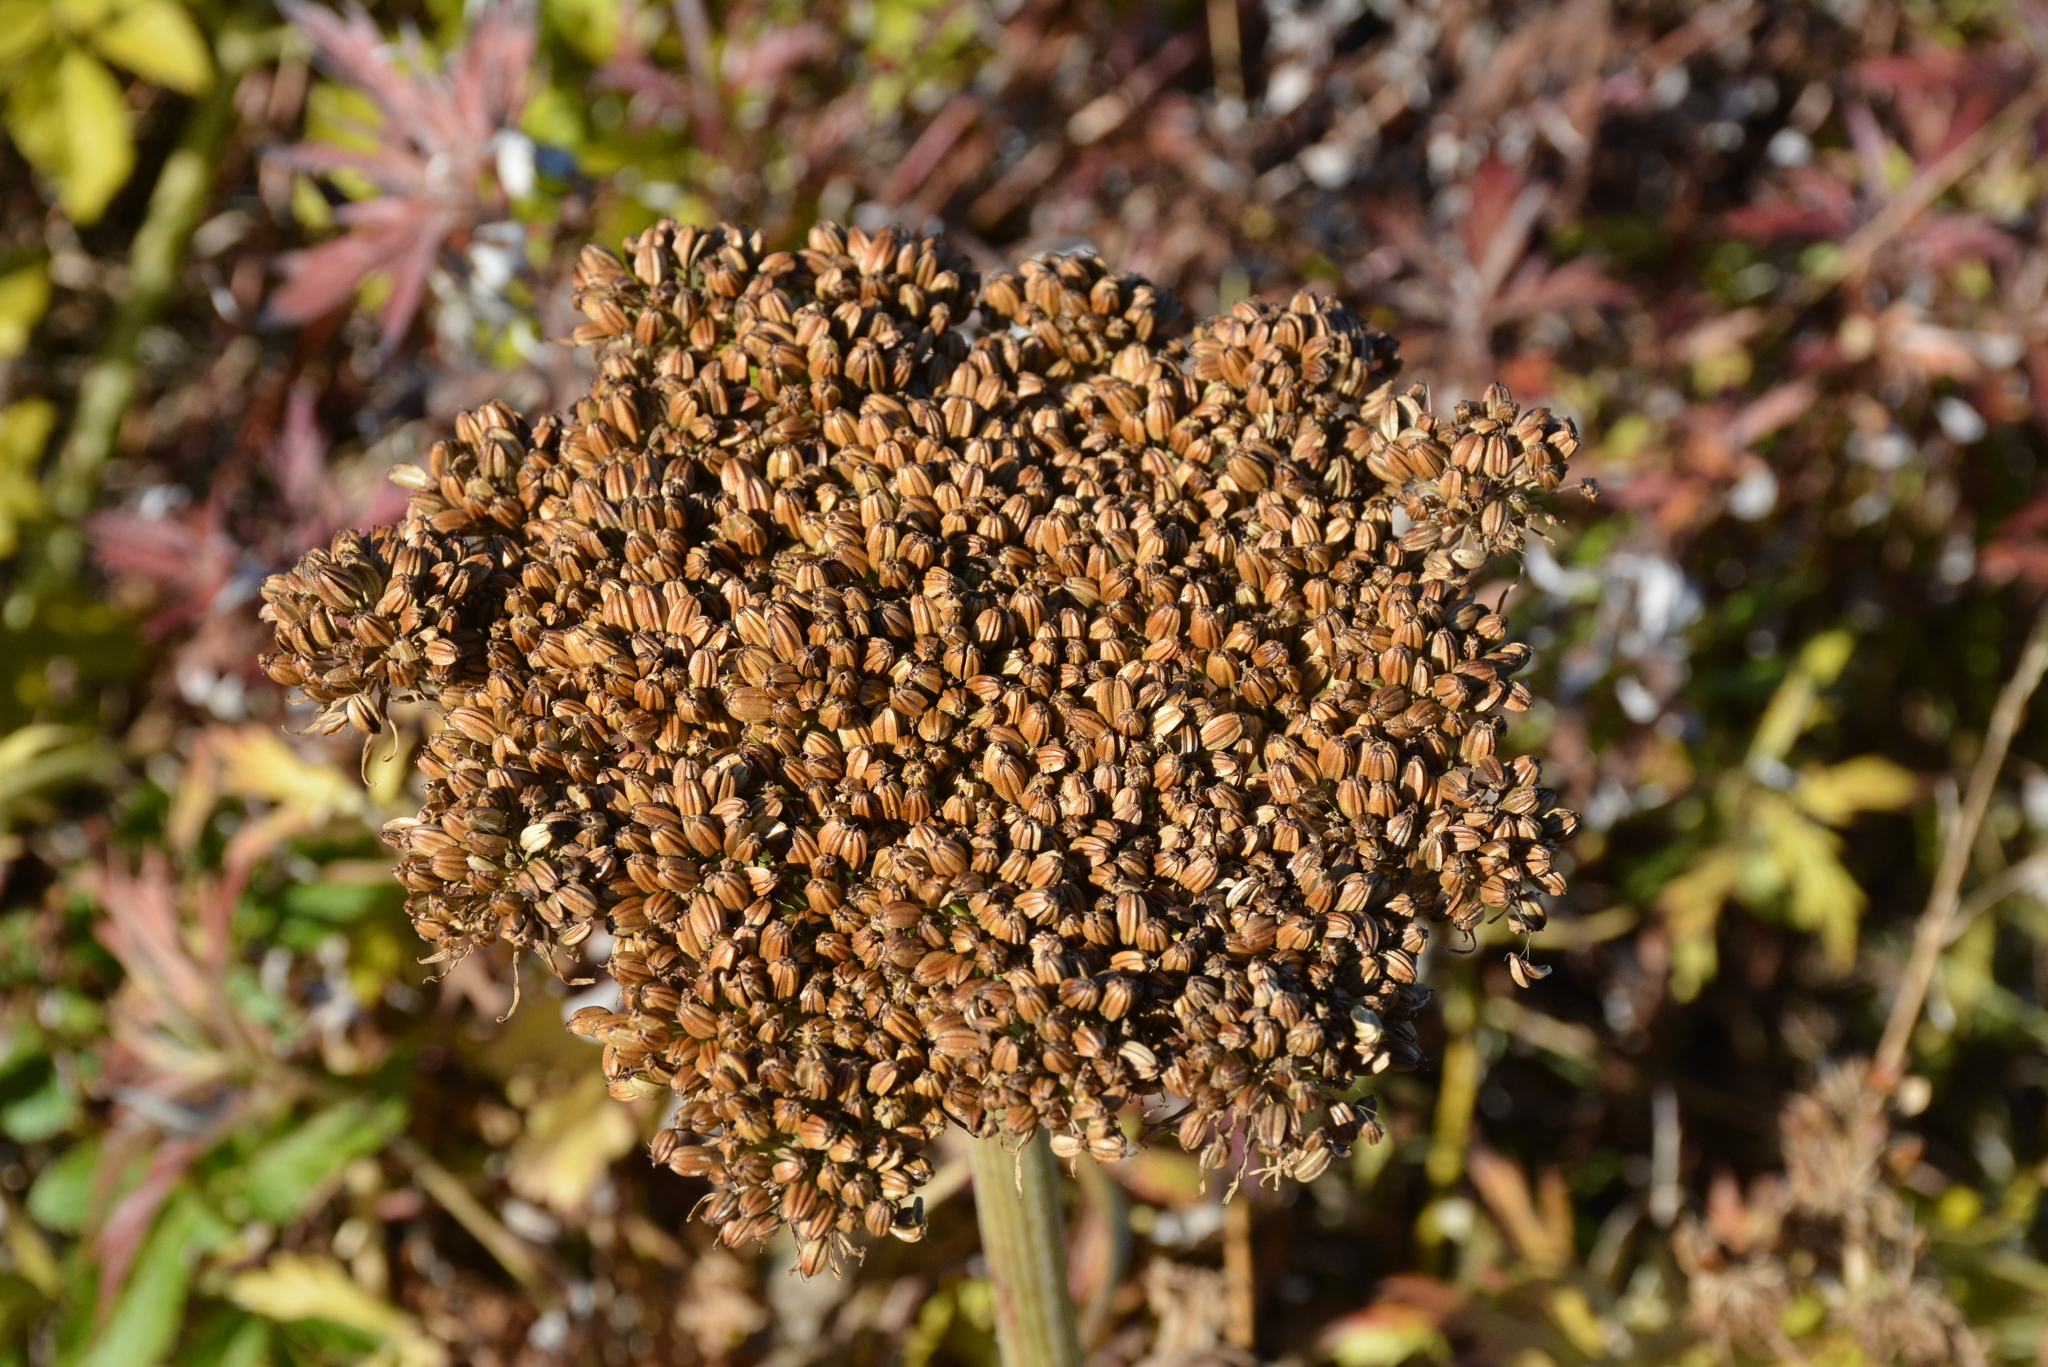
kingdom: Plantae
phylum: Tracheophyta
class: Magnoliopsida
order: Apiales
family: Apiaceae
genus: Angelica
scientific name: Angelica gmelinii
